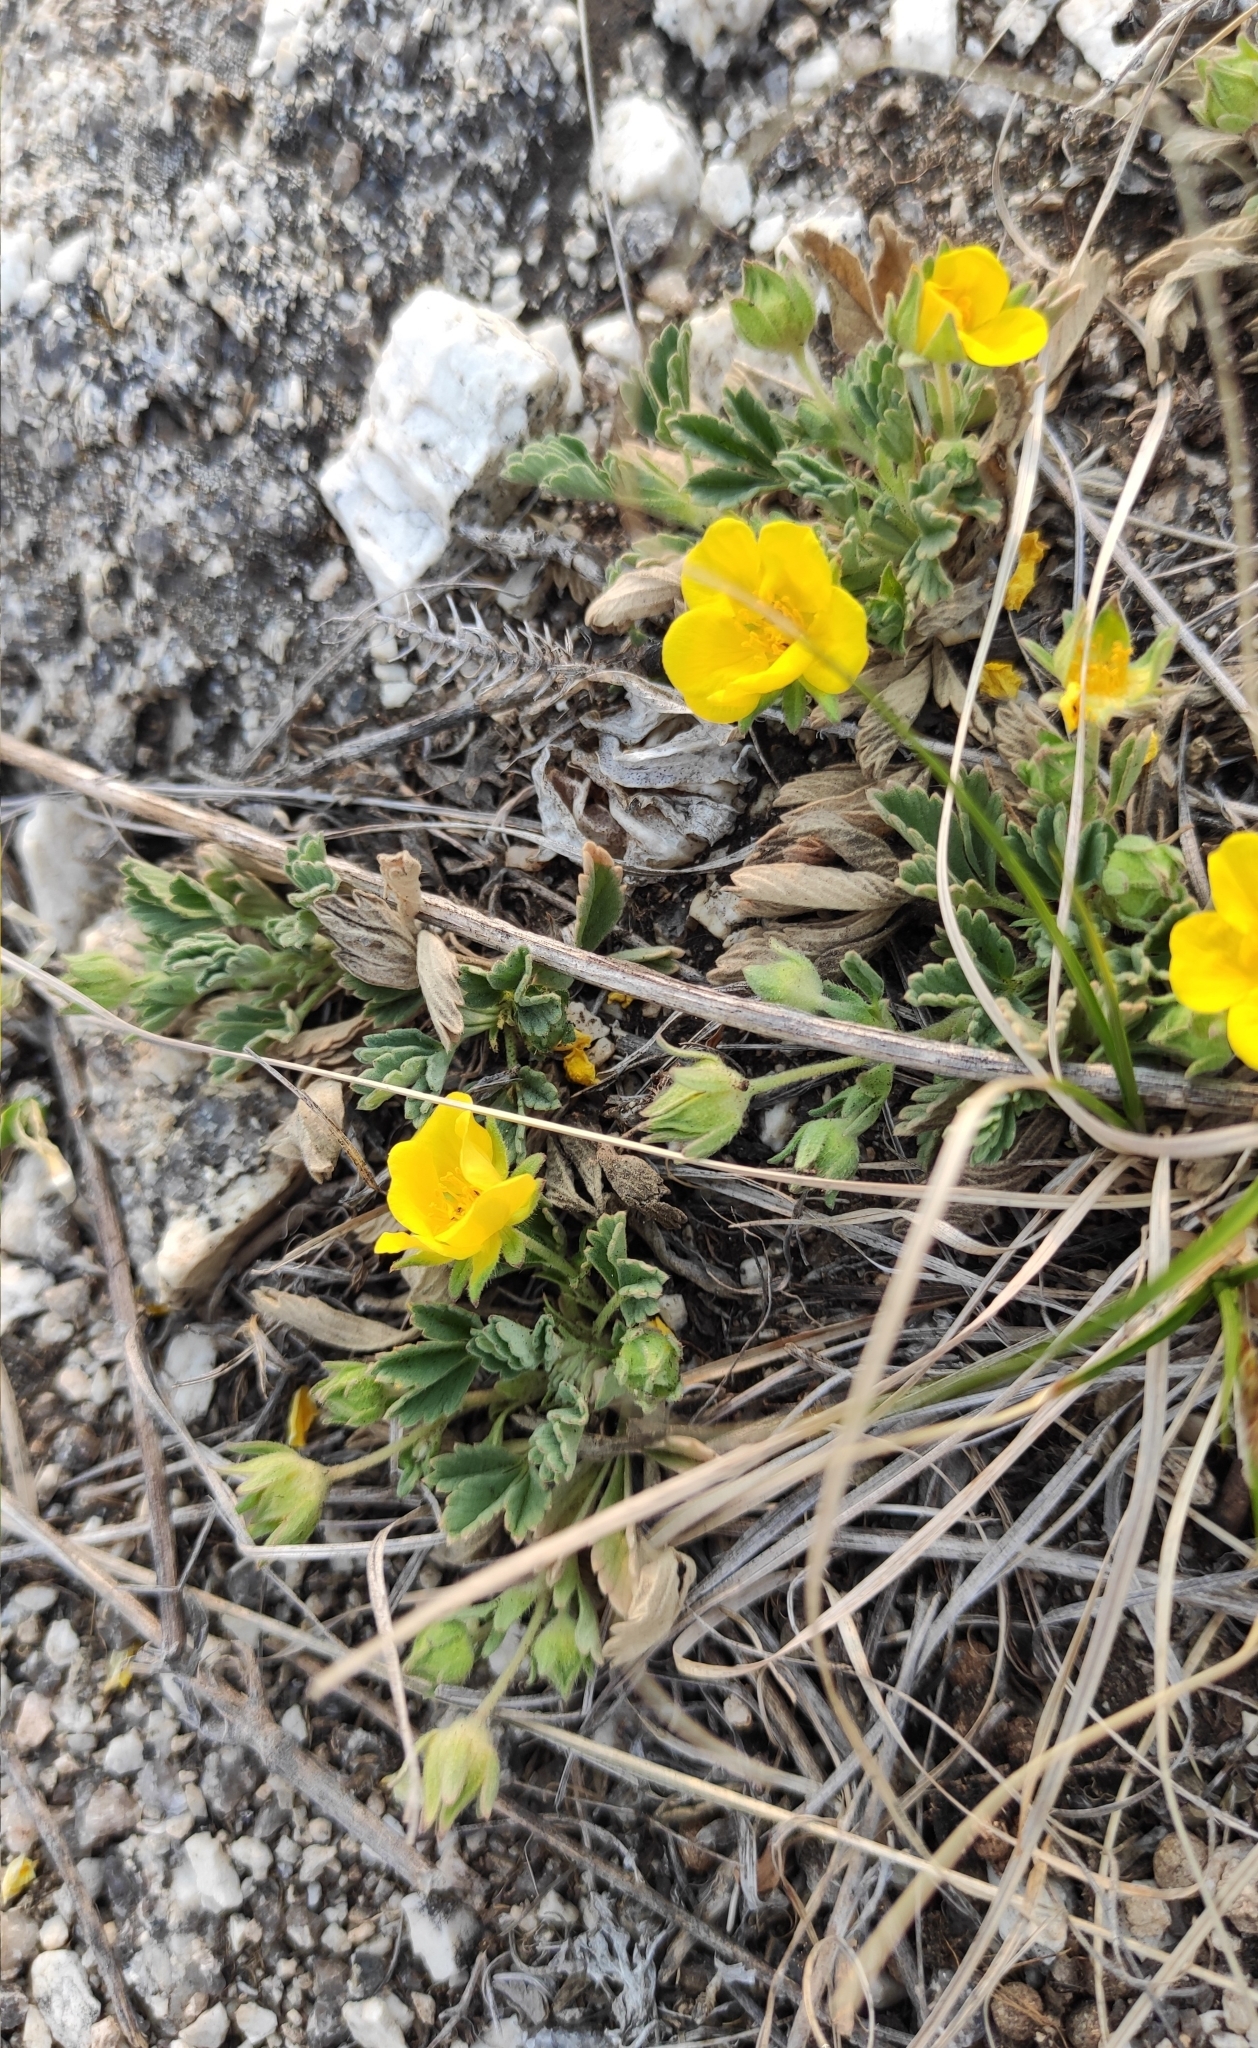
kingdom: Plantae
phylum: Tracheophyta
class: Magnoliopsida
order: Rosales
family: Rosaceae
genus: Potentilla
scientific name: Potentilla acaulis
